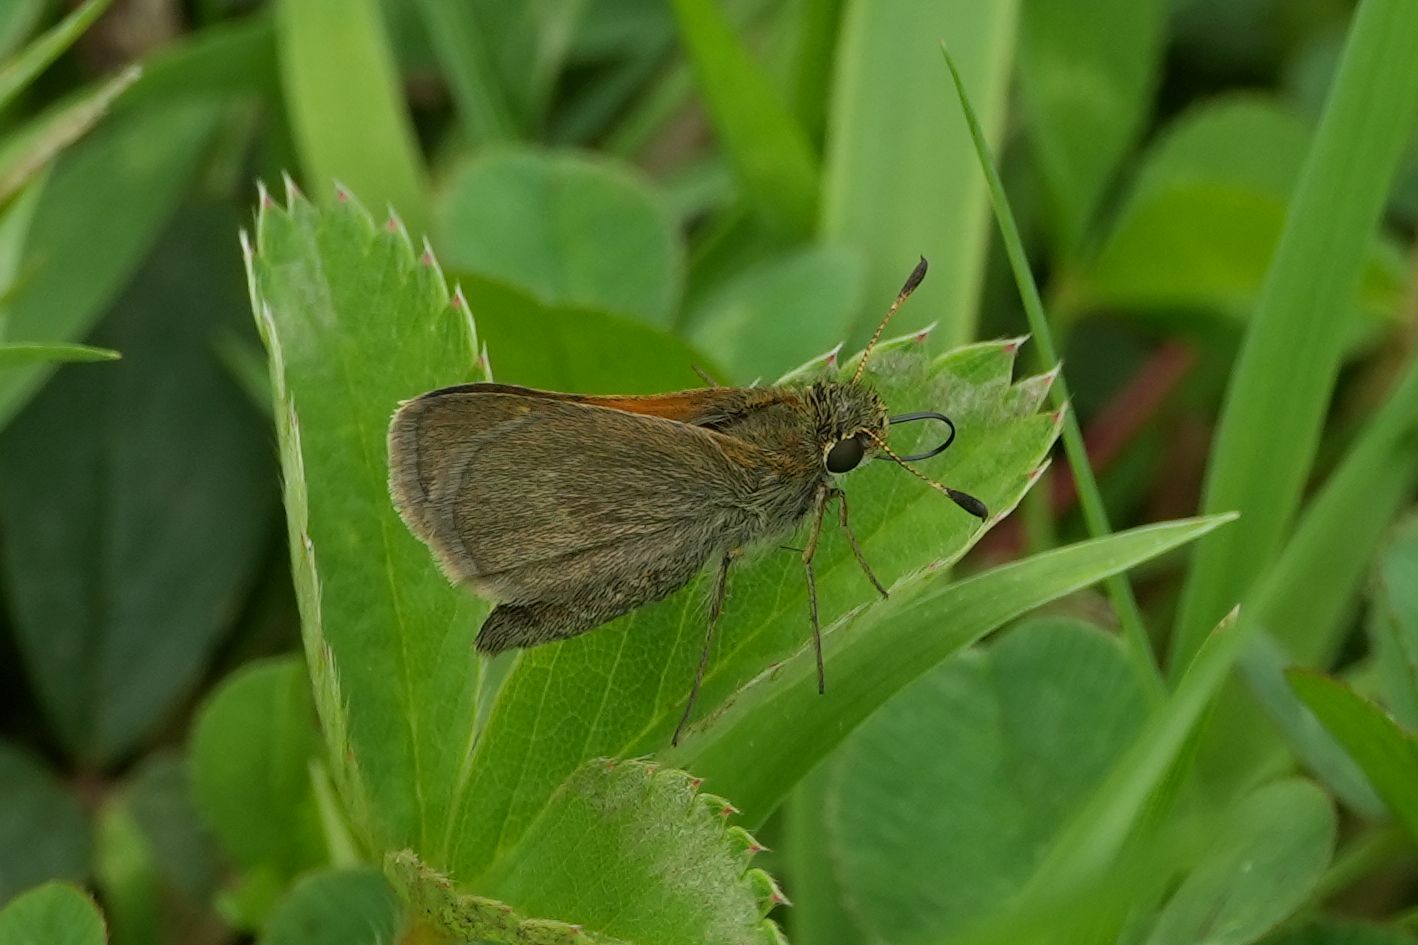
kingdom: Animalia
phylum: Arthropoda
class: Insecta
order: Lepidoptera
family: Hesperiidae
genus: Polites
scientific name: Polites themistocles
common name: Tawny-edged skipper
